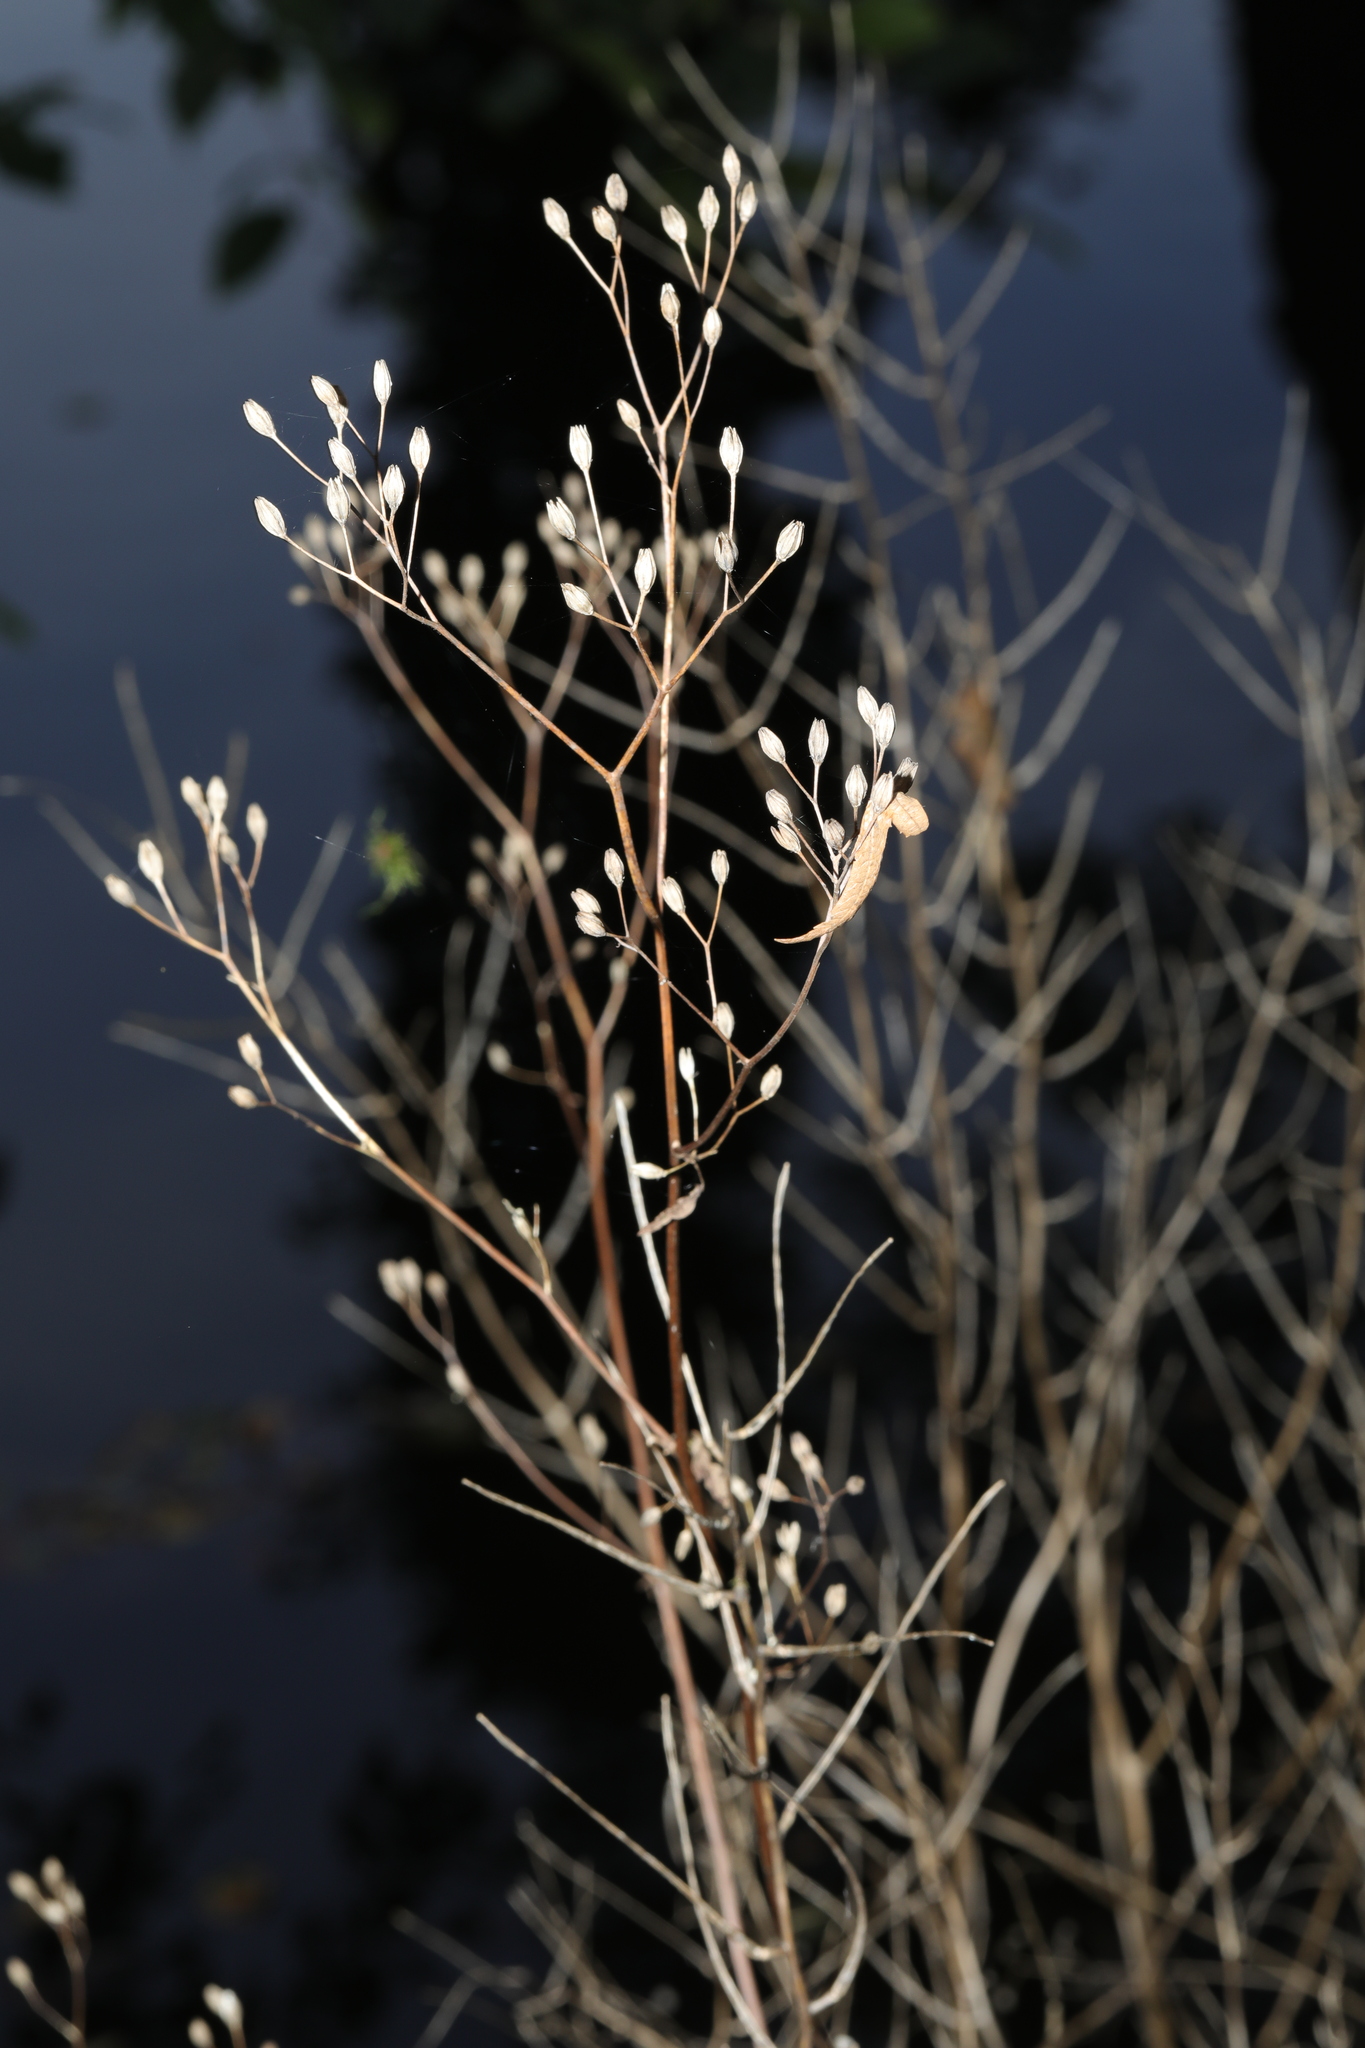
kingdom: Plantae
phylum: Tracheophyta
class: Magnoliopsida
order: Asterales
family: Asteraceae
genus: Lapsana
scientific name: Lapsana communis
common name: Nipplewort
